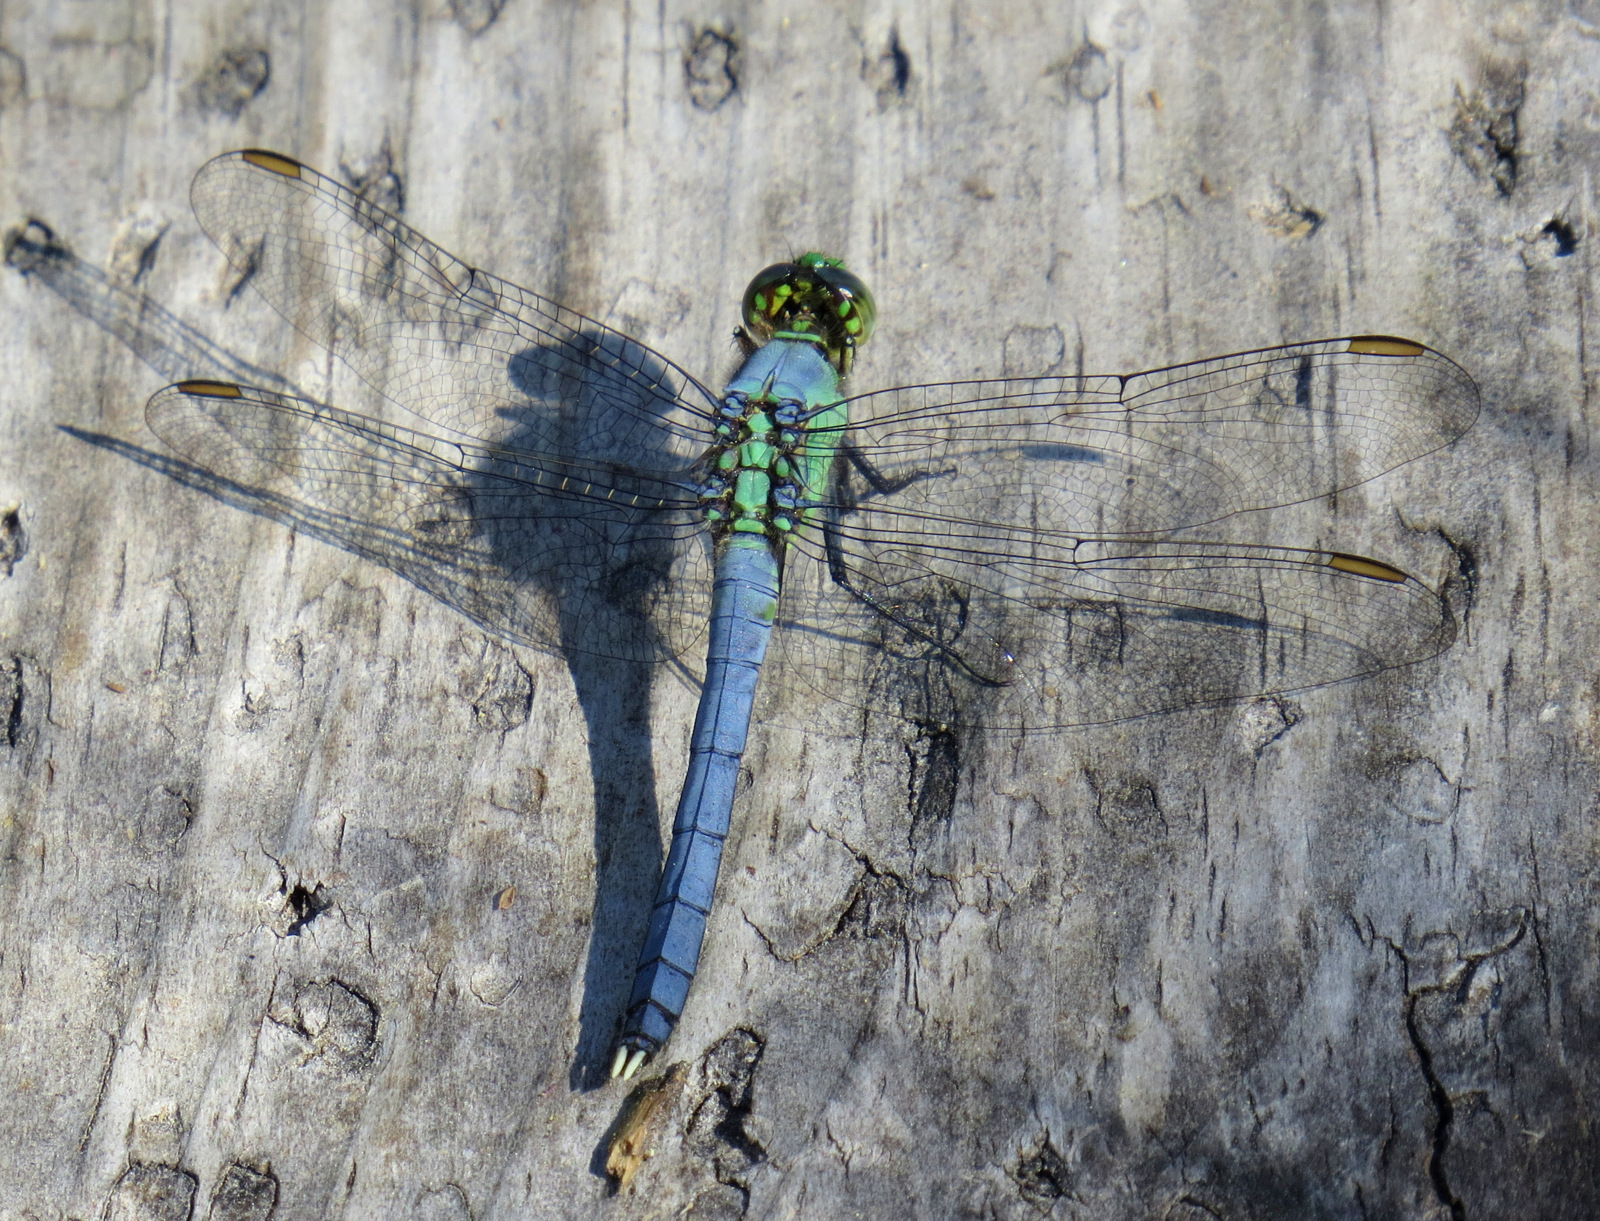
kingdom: Animalia
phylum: Arthropoda
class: Insecta
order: Odonata
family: Libellulidae
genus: Erythemis
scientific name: Erythemis simplicicollis
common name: Eastern pondhawk
